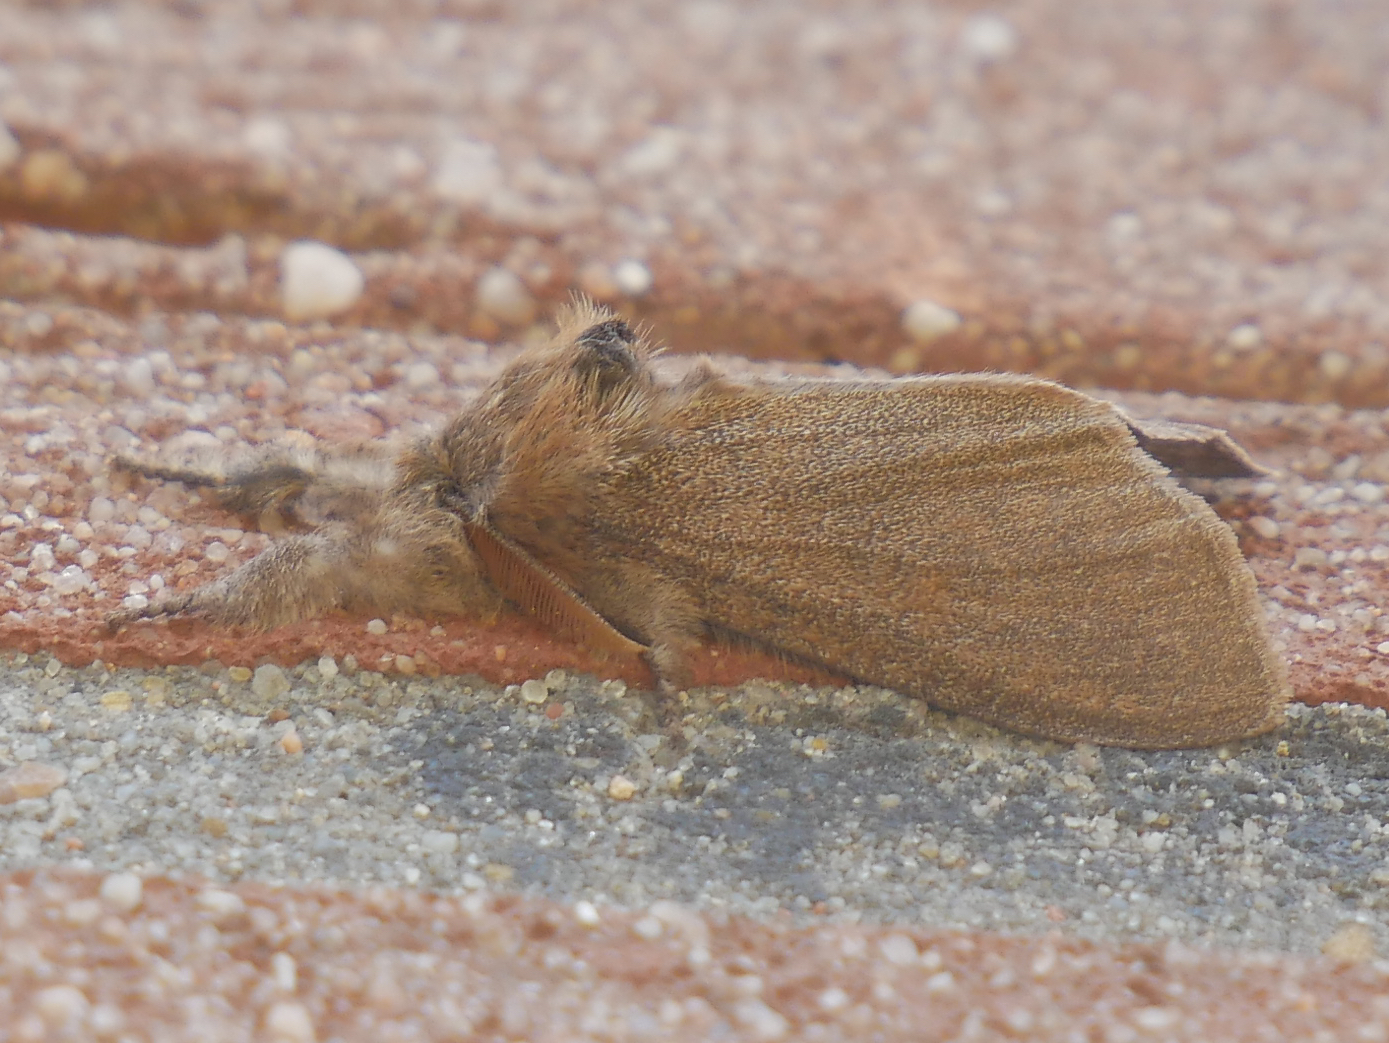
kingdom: Animalia
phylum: Arthropoda
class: Insecta
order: Lepidoptera
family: Erebidae
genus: Calliteara
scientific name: Calliteara pudibunda
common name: Pale tussock
